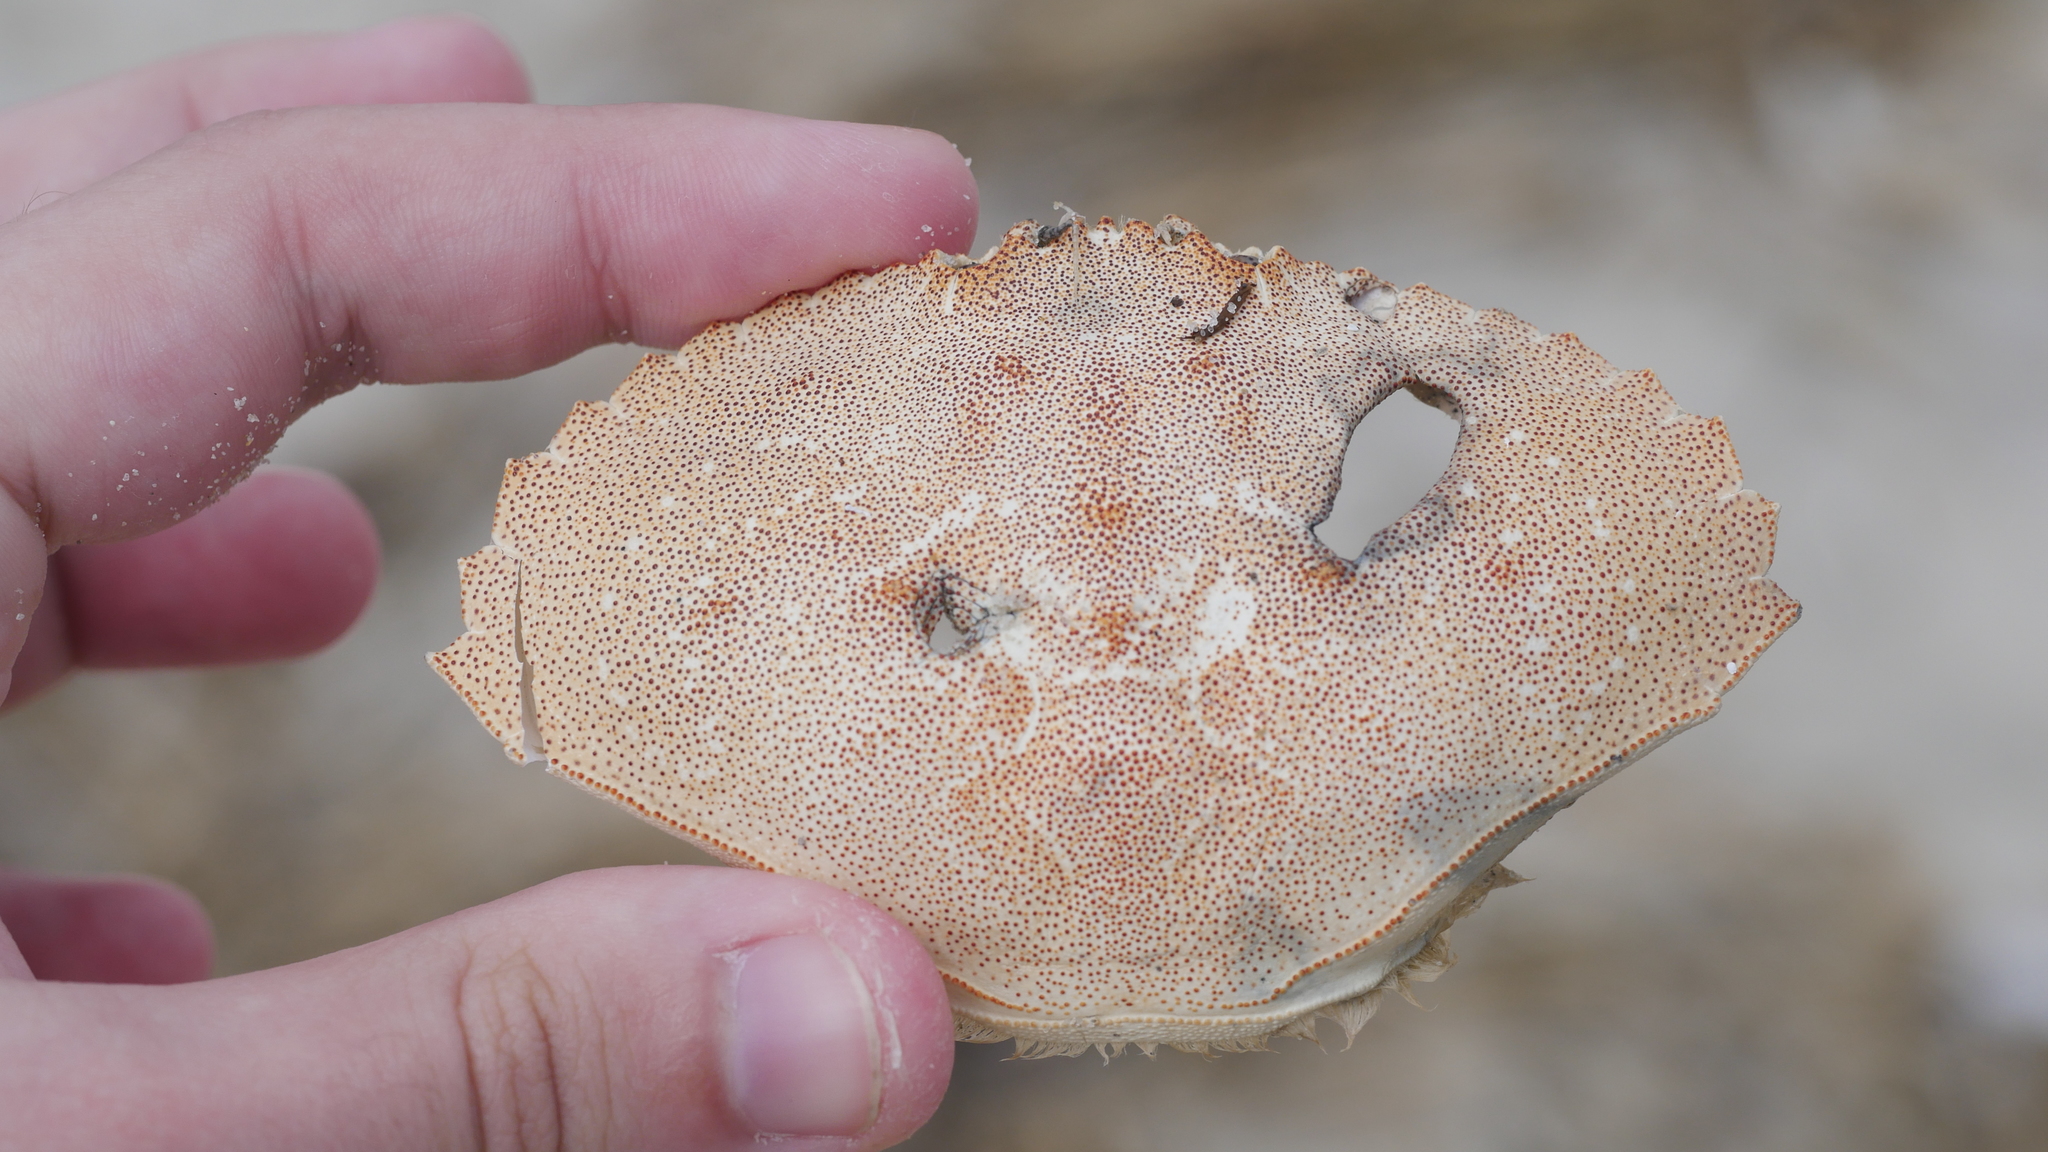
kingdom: Animalia
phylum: Arthropoda
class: Malacostraca
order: Decapoda
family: Cancridae
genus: Cancer
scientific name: Cancer irroratus
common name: Atlantic rock crab
